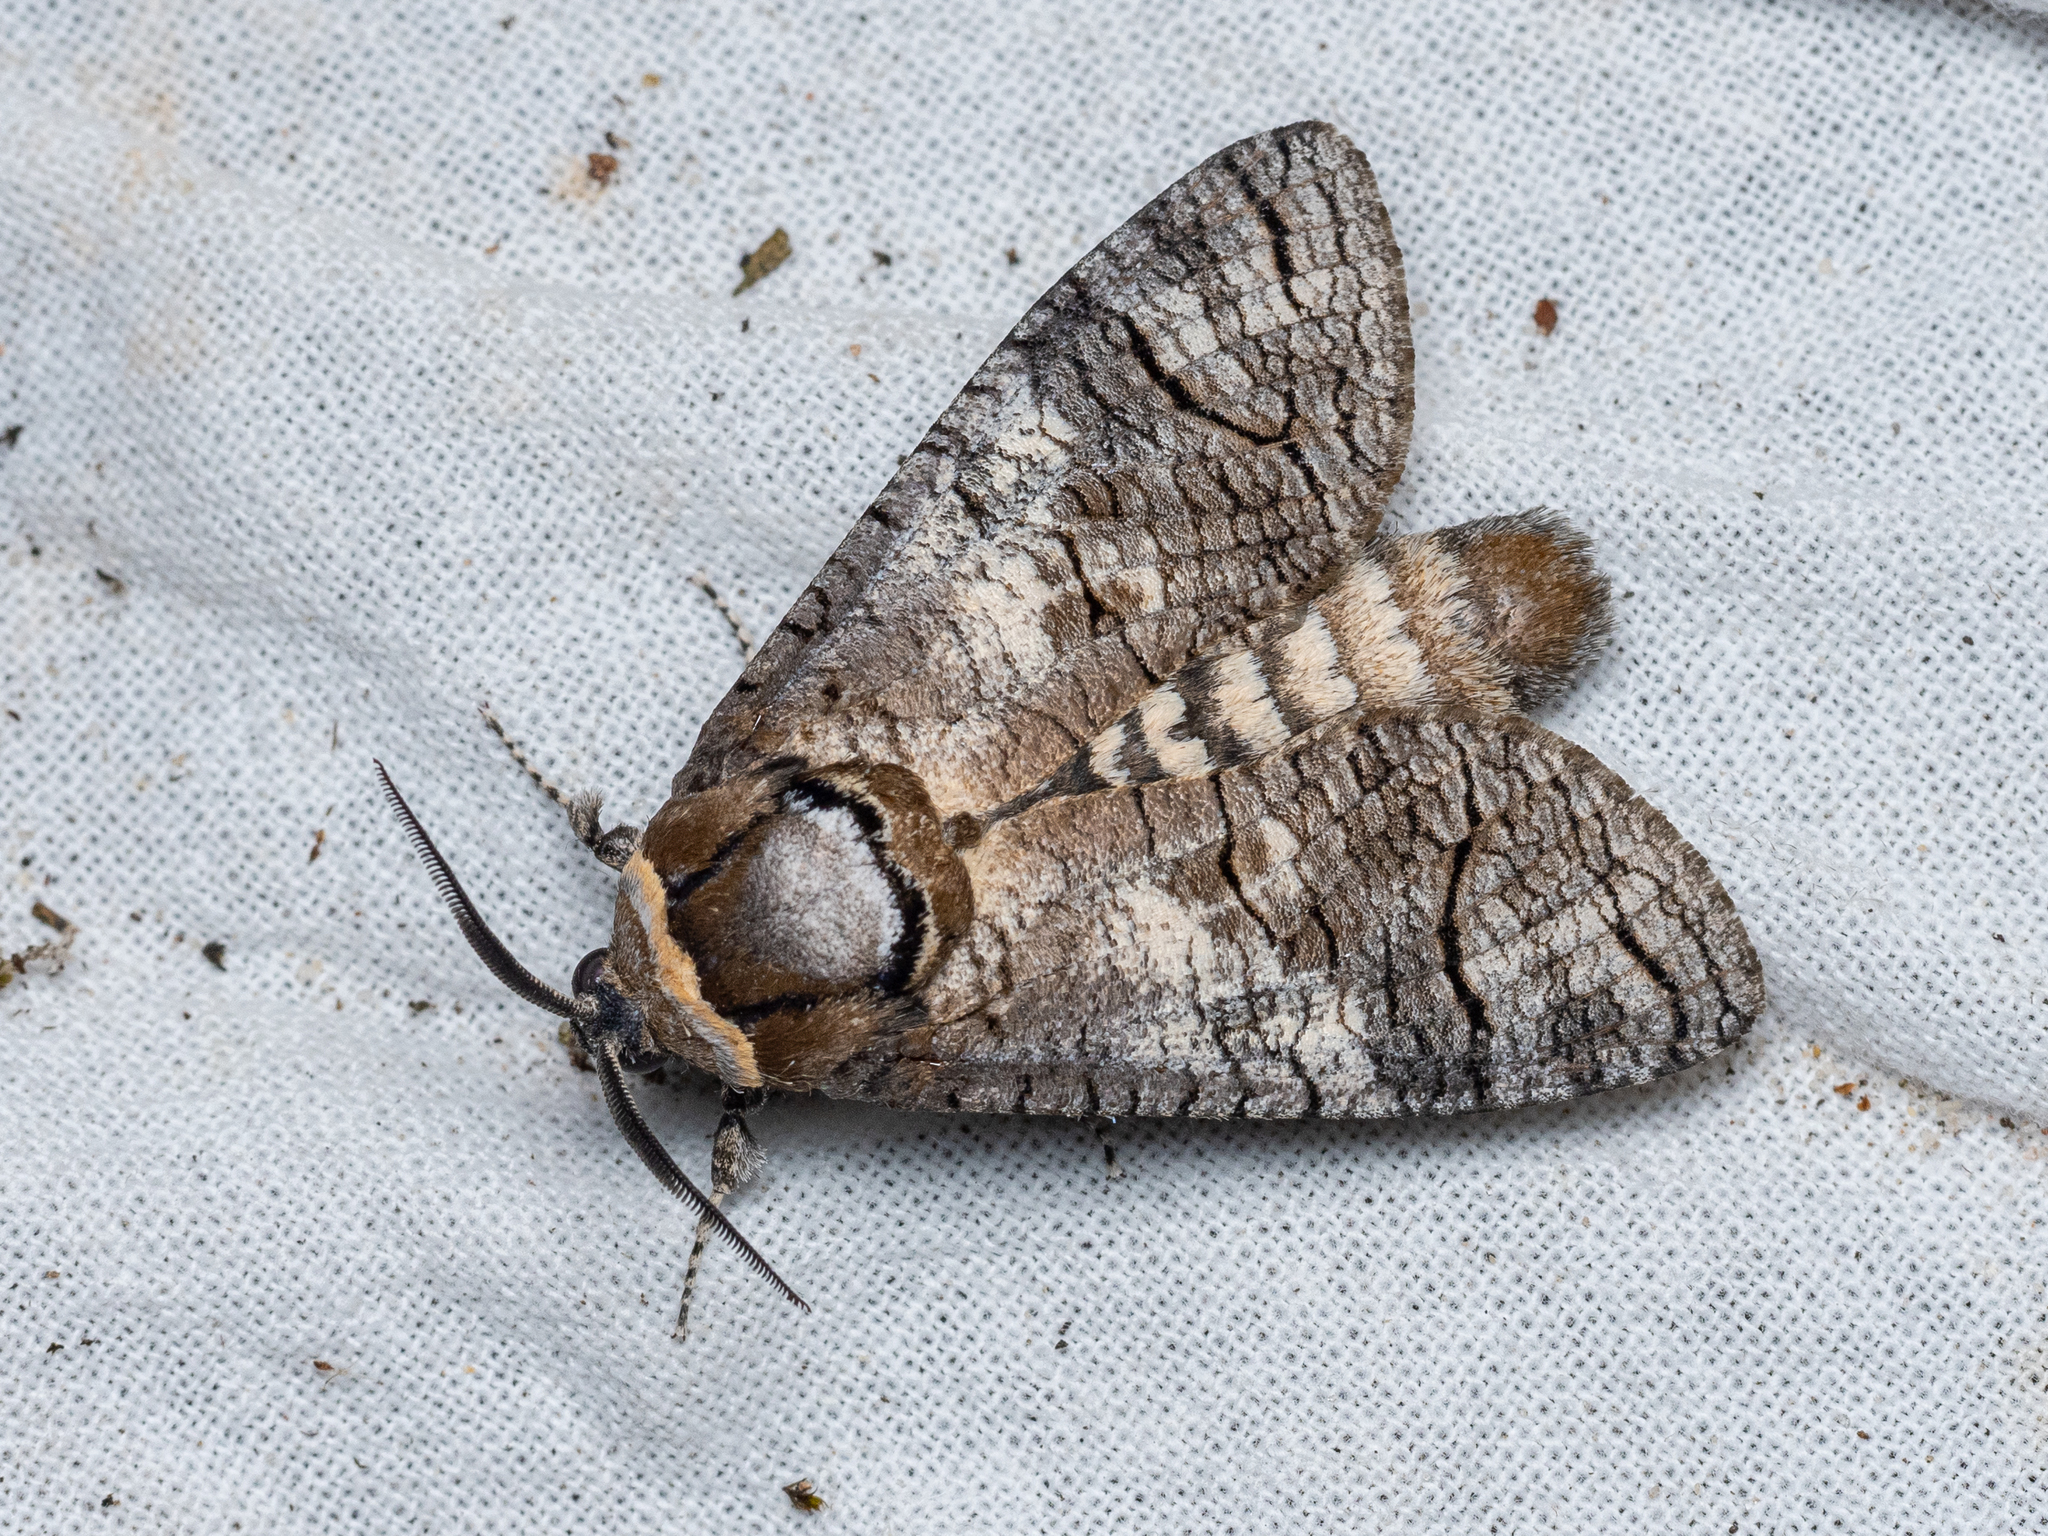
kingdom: Animalia
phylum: Arthropoda
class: Insecta
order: Lepidoptera
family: Cossidae
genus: Cossus
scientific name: Cossus cossus
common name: Goat moth
